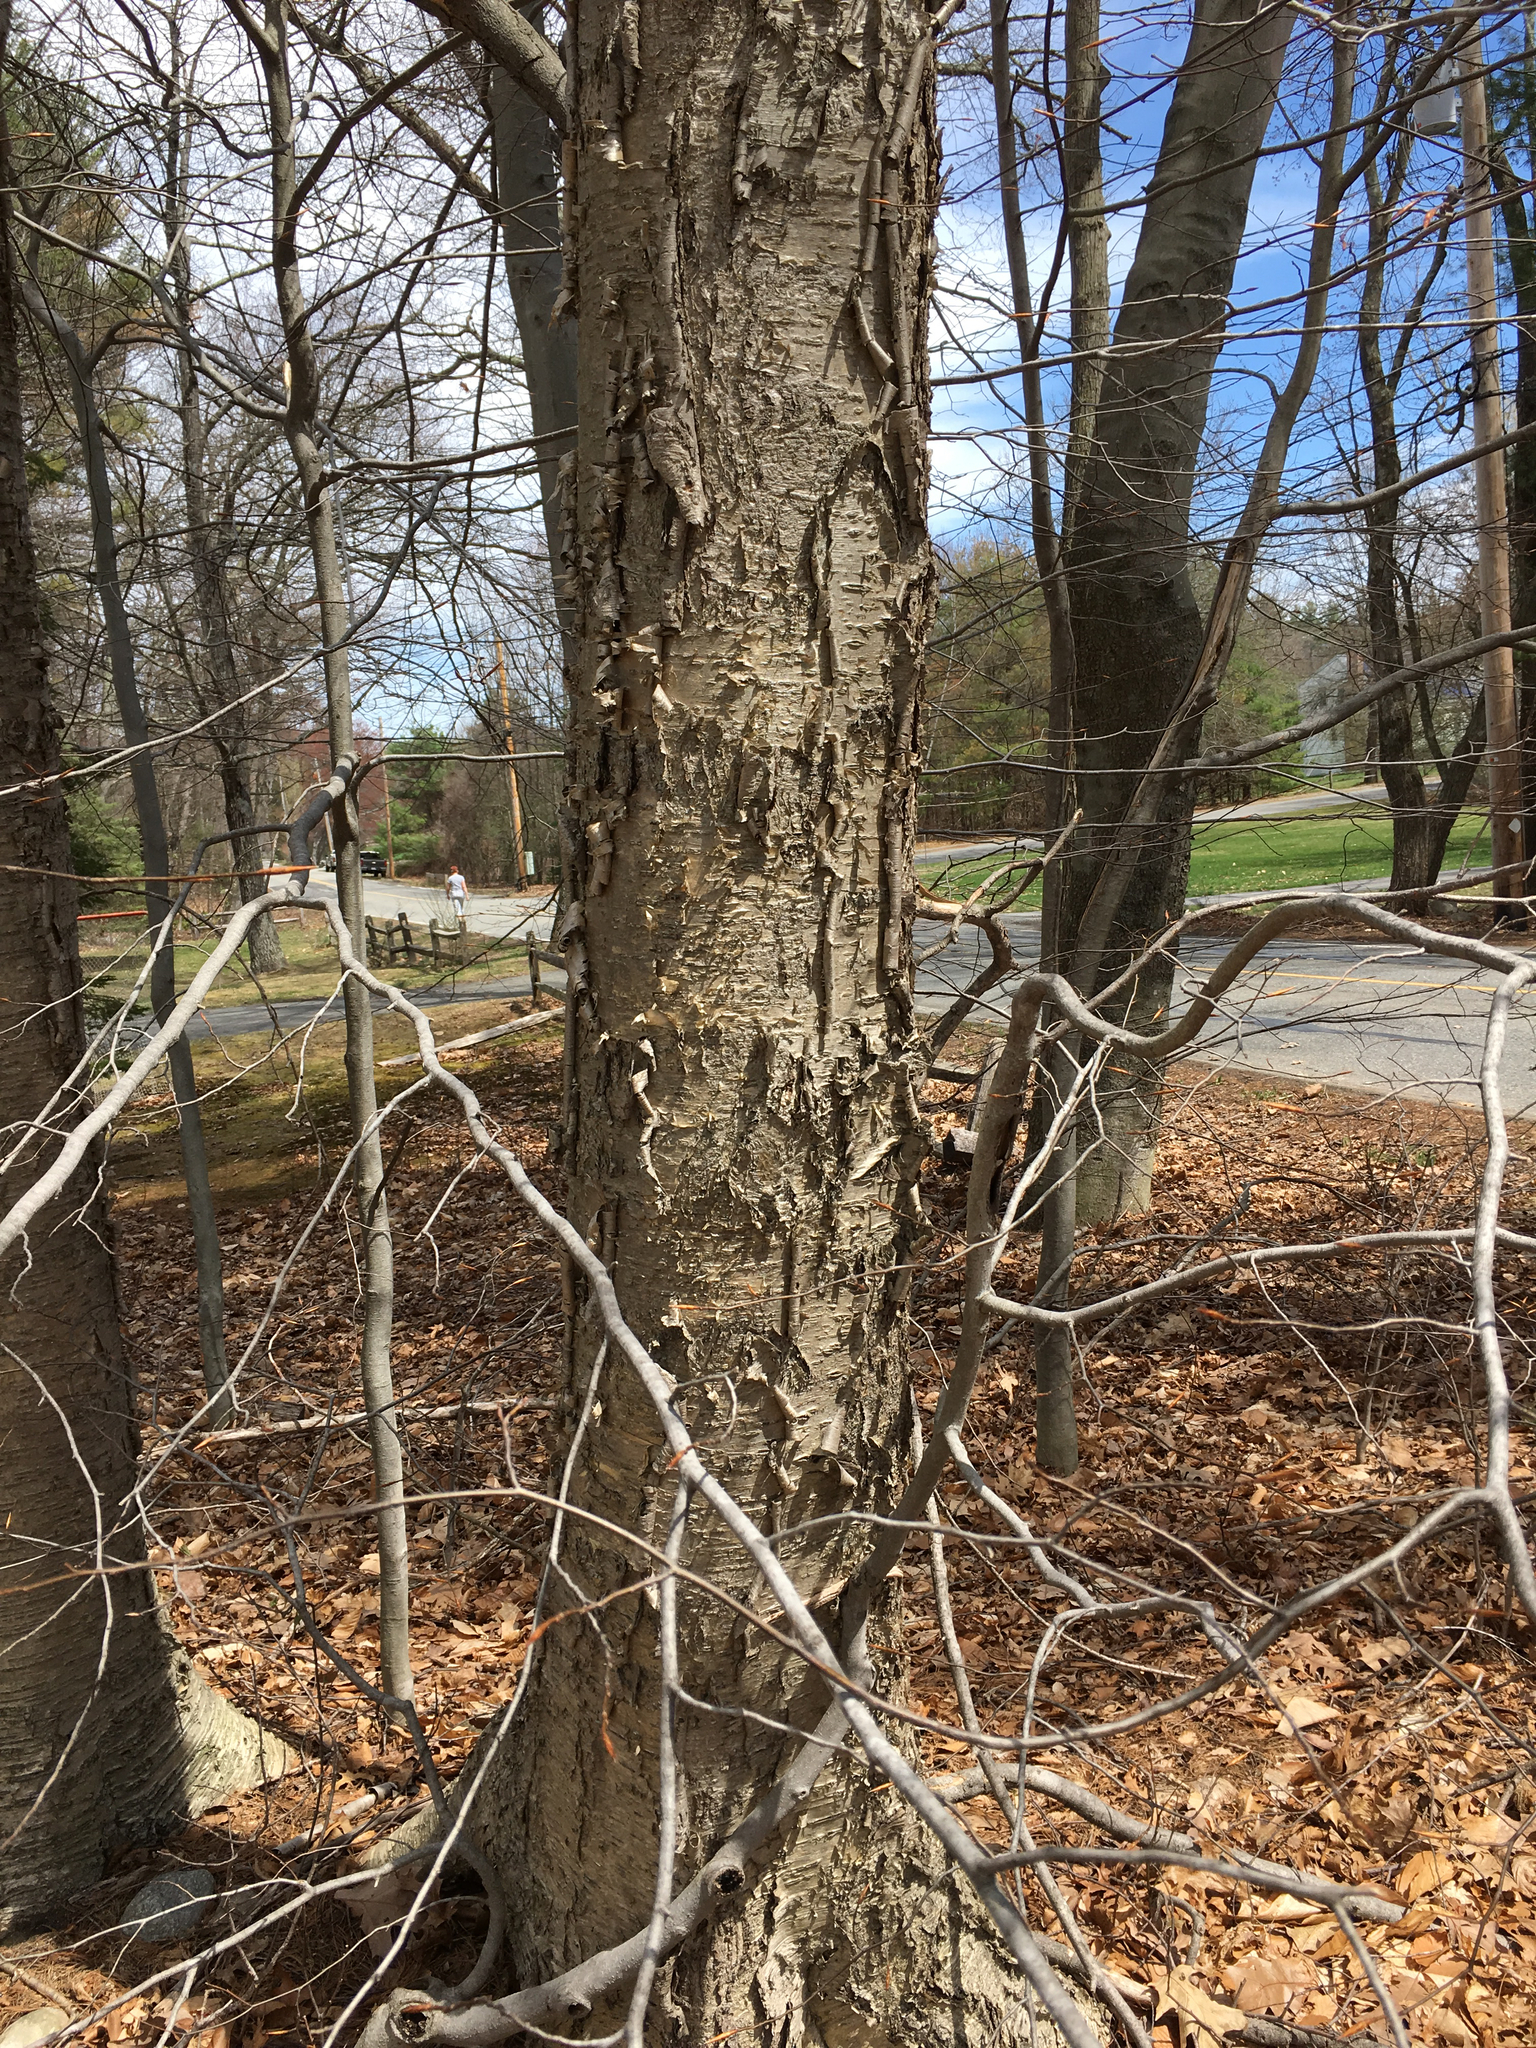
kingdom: Plantae
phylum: Tracheophyta
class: Magnoliopsida
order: Fagales
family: Betulaceae
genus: Betula
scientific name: Betula alleghaniensis
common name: Yellow birch
